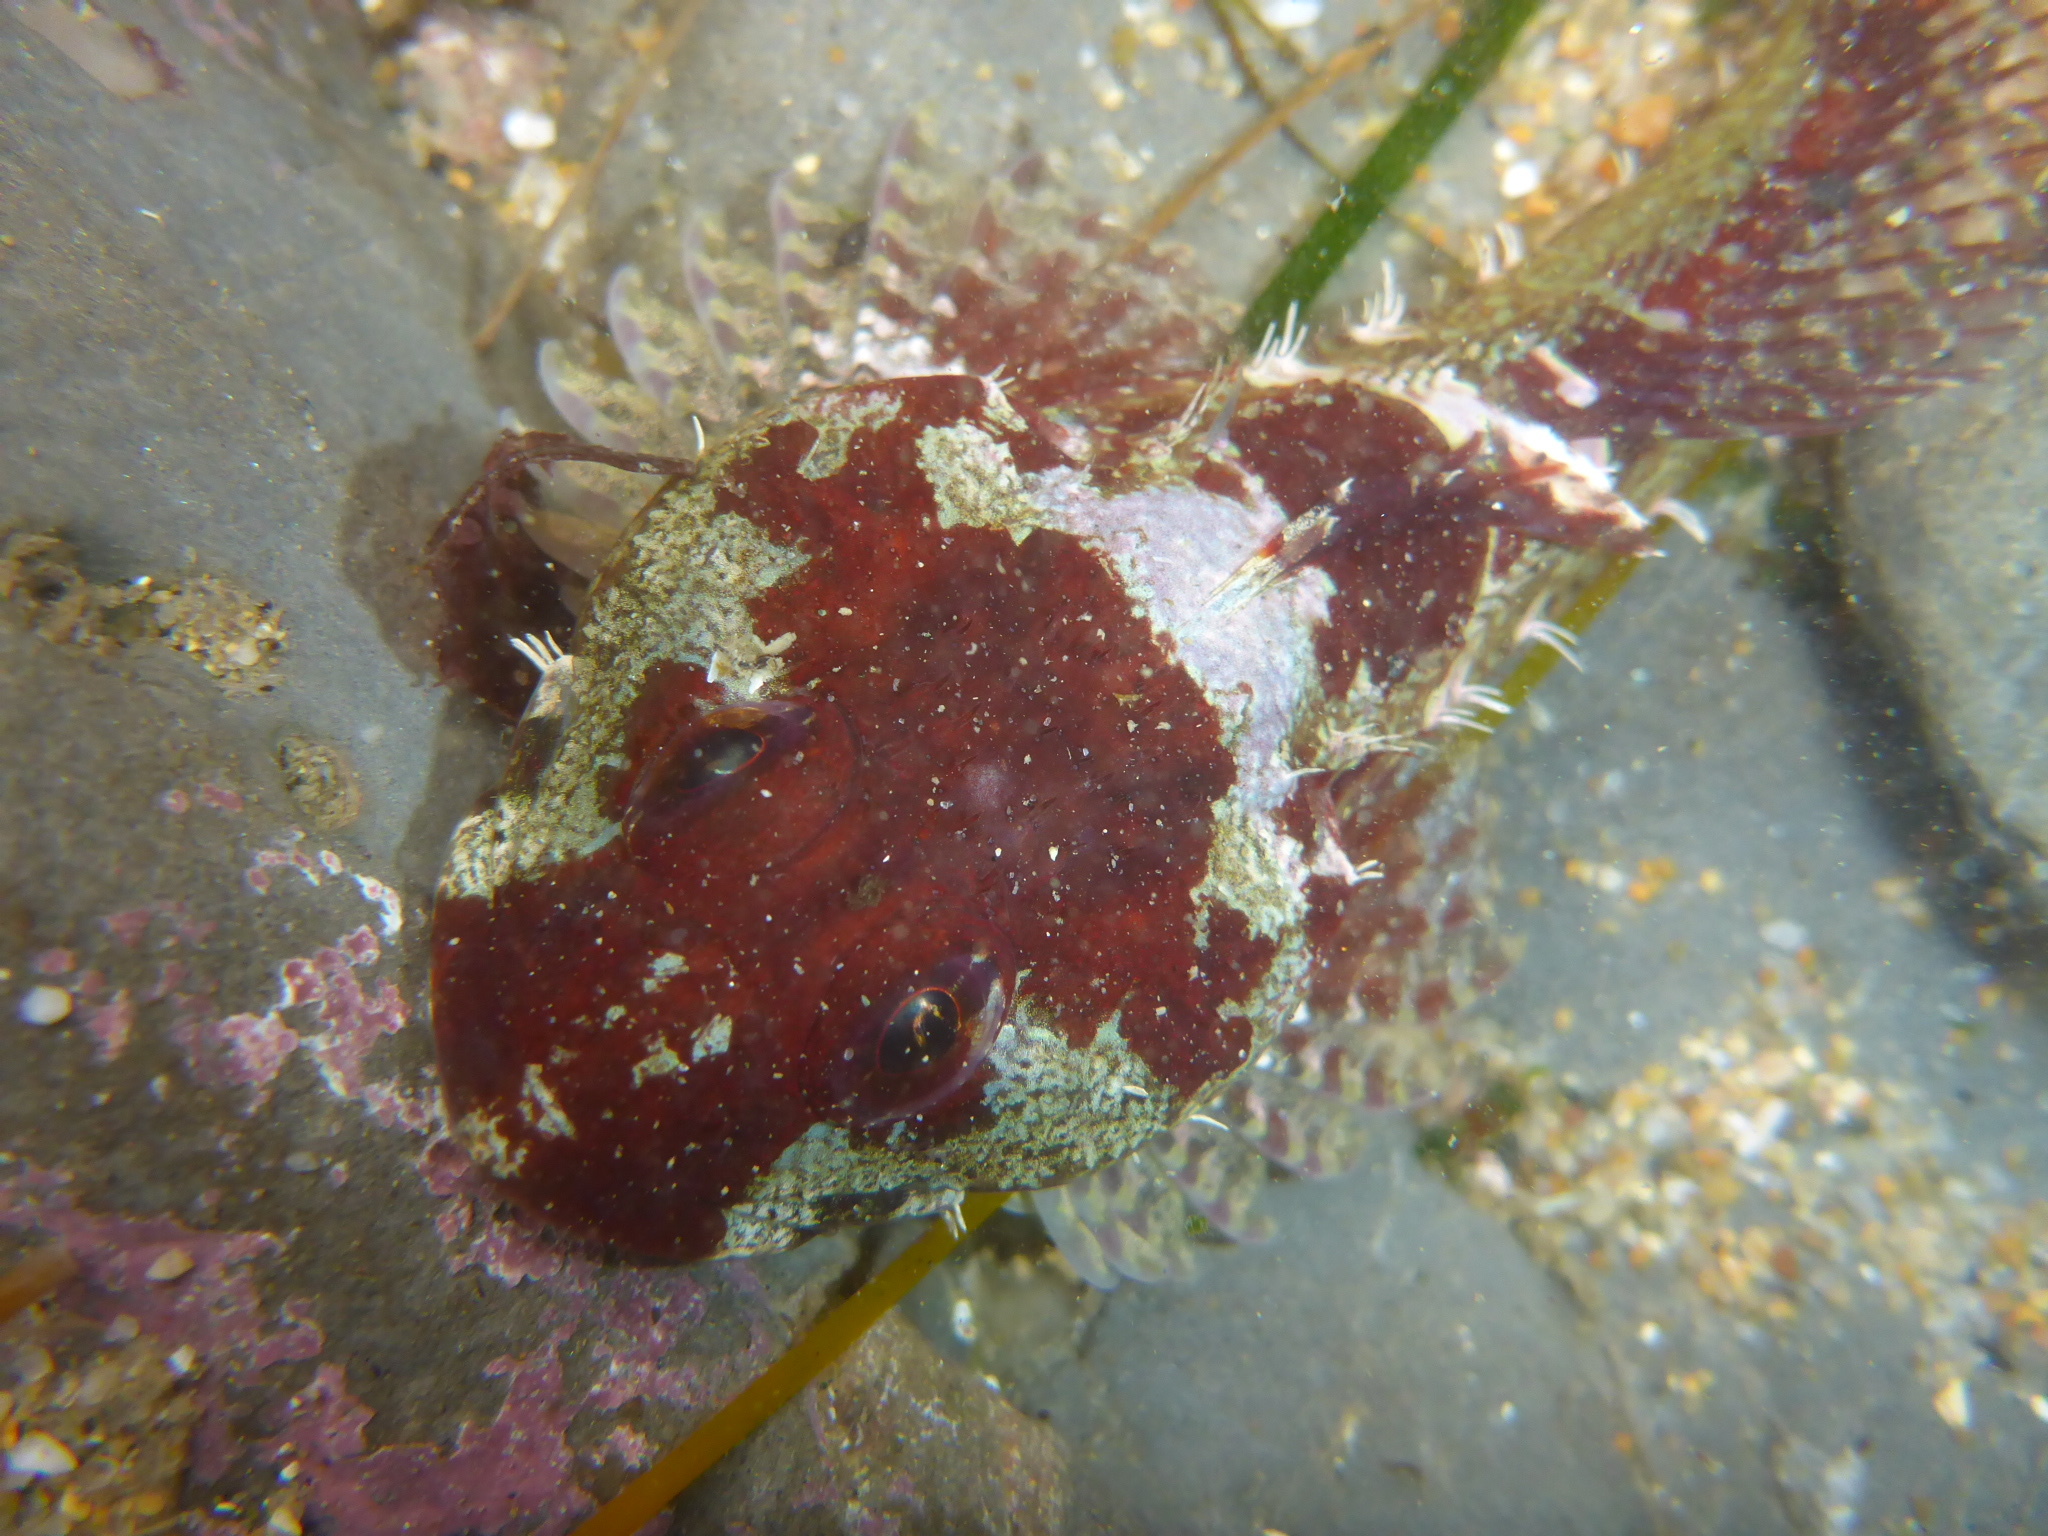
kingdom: Animalia
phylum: Chordata
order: Scorpaeniformes
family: Cottidae
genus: Artedius
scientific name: Artedius lateralis
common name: Smooth-head sculpin
